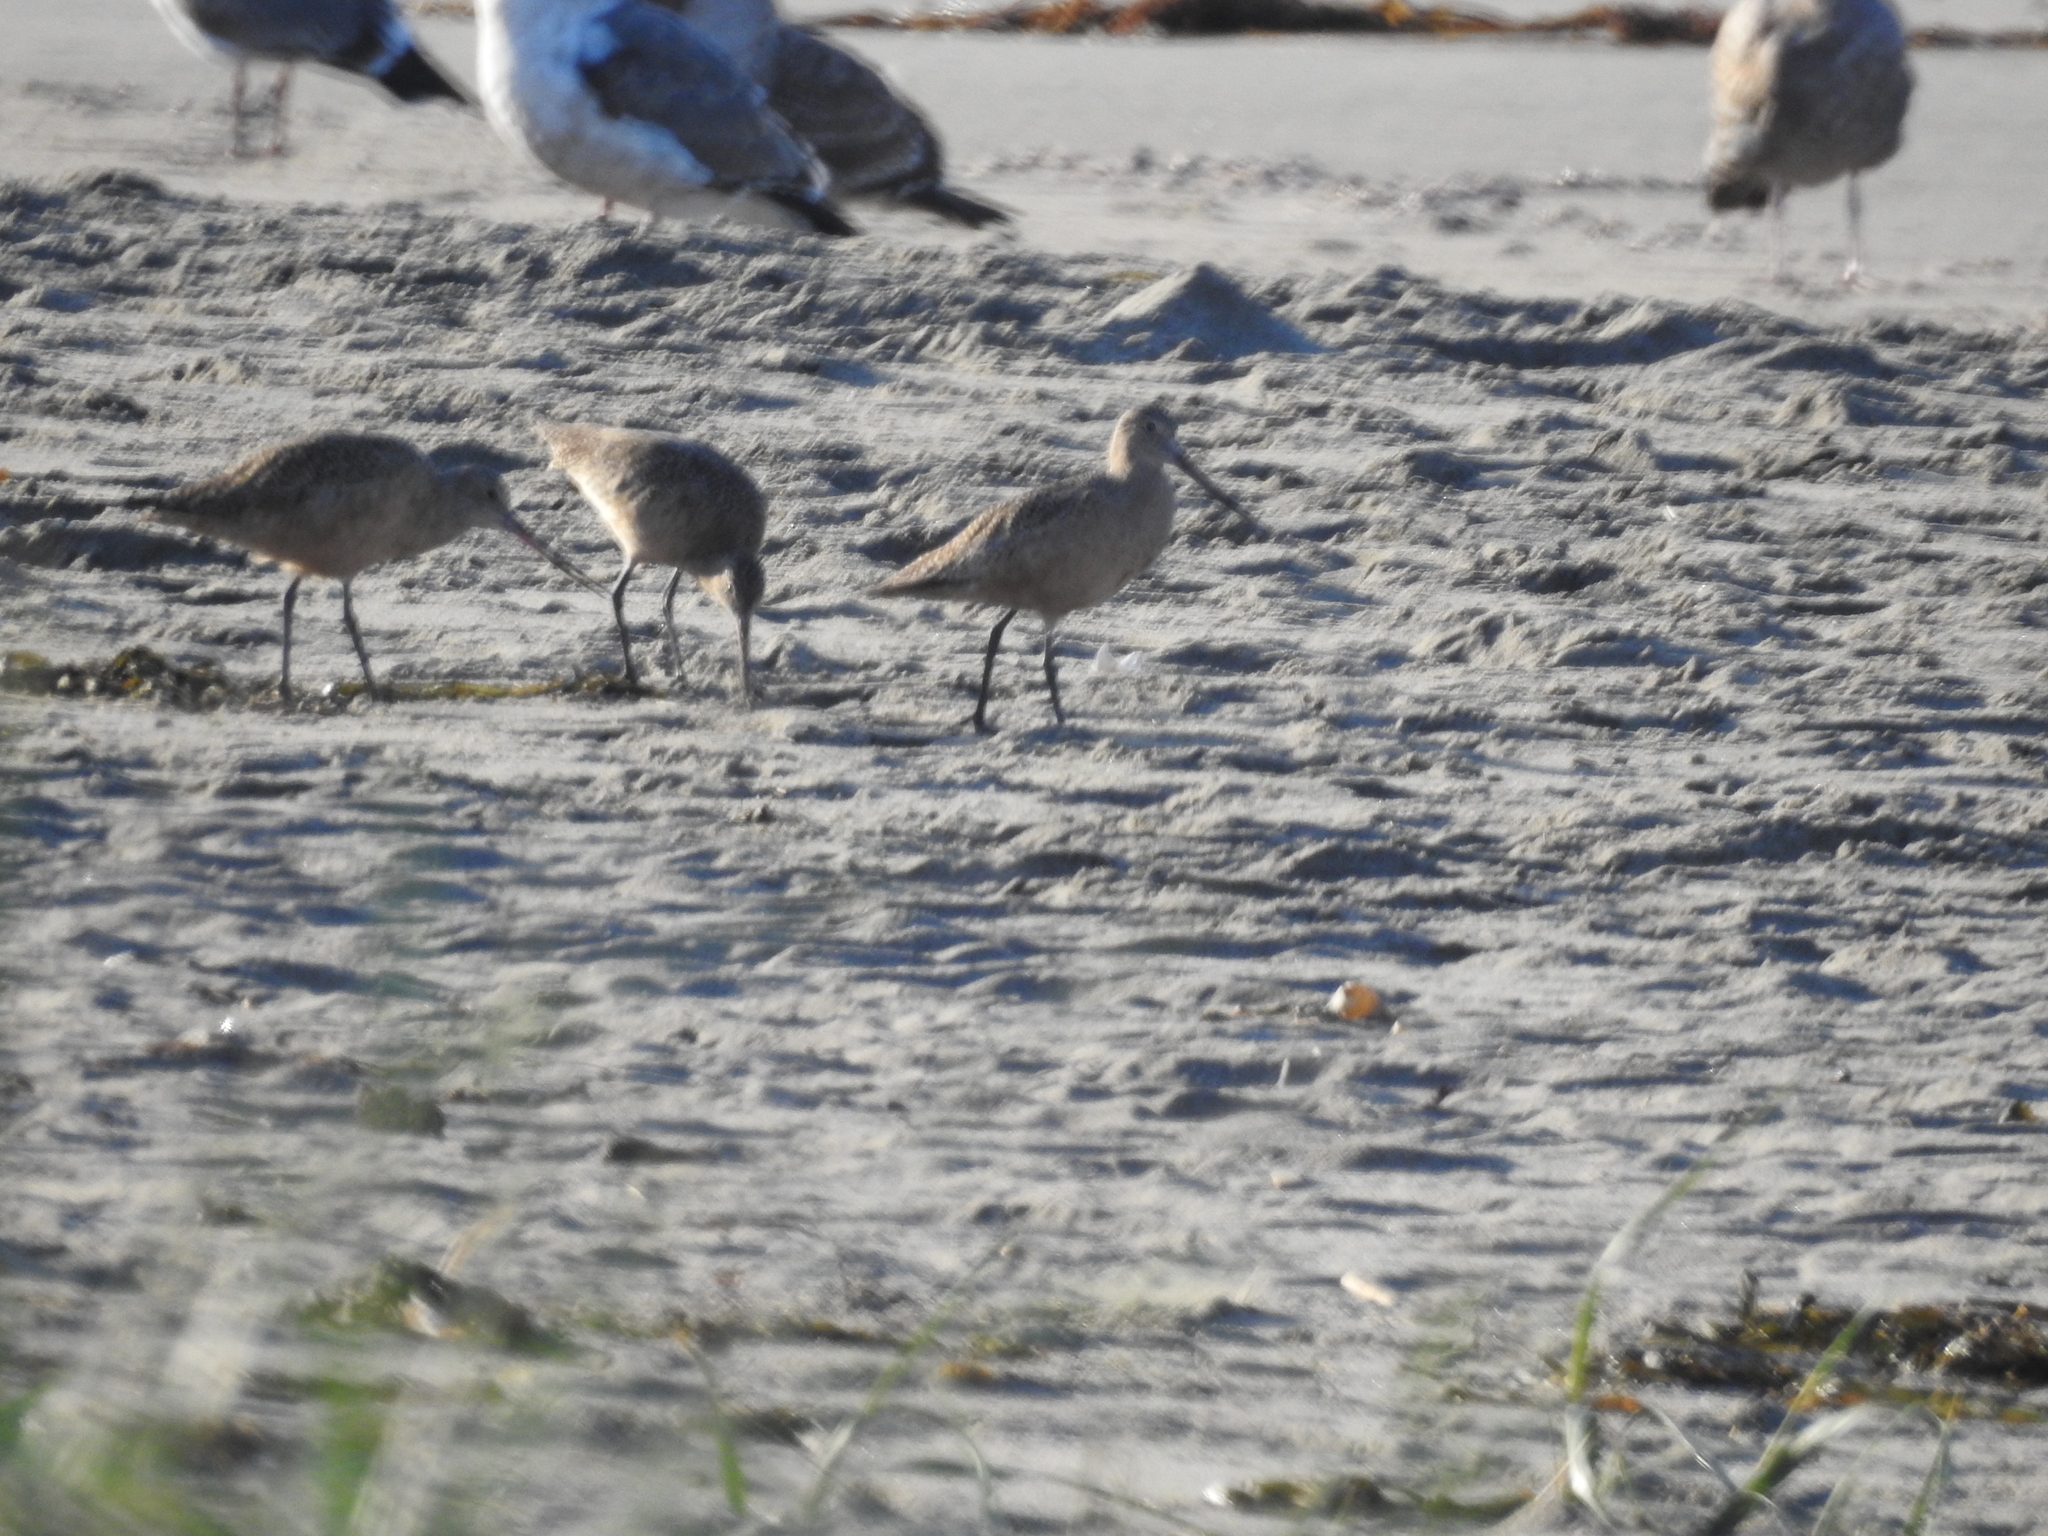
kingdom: Animalia
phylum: Chordata
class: Aves
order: Charadriiformes
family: Scolopacidae
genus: Limosa
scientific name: Limosa fedoa
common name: Marbled godwit
